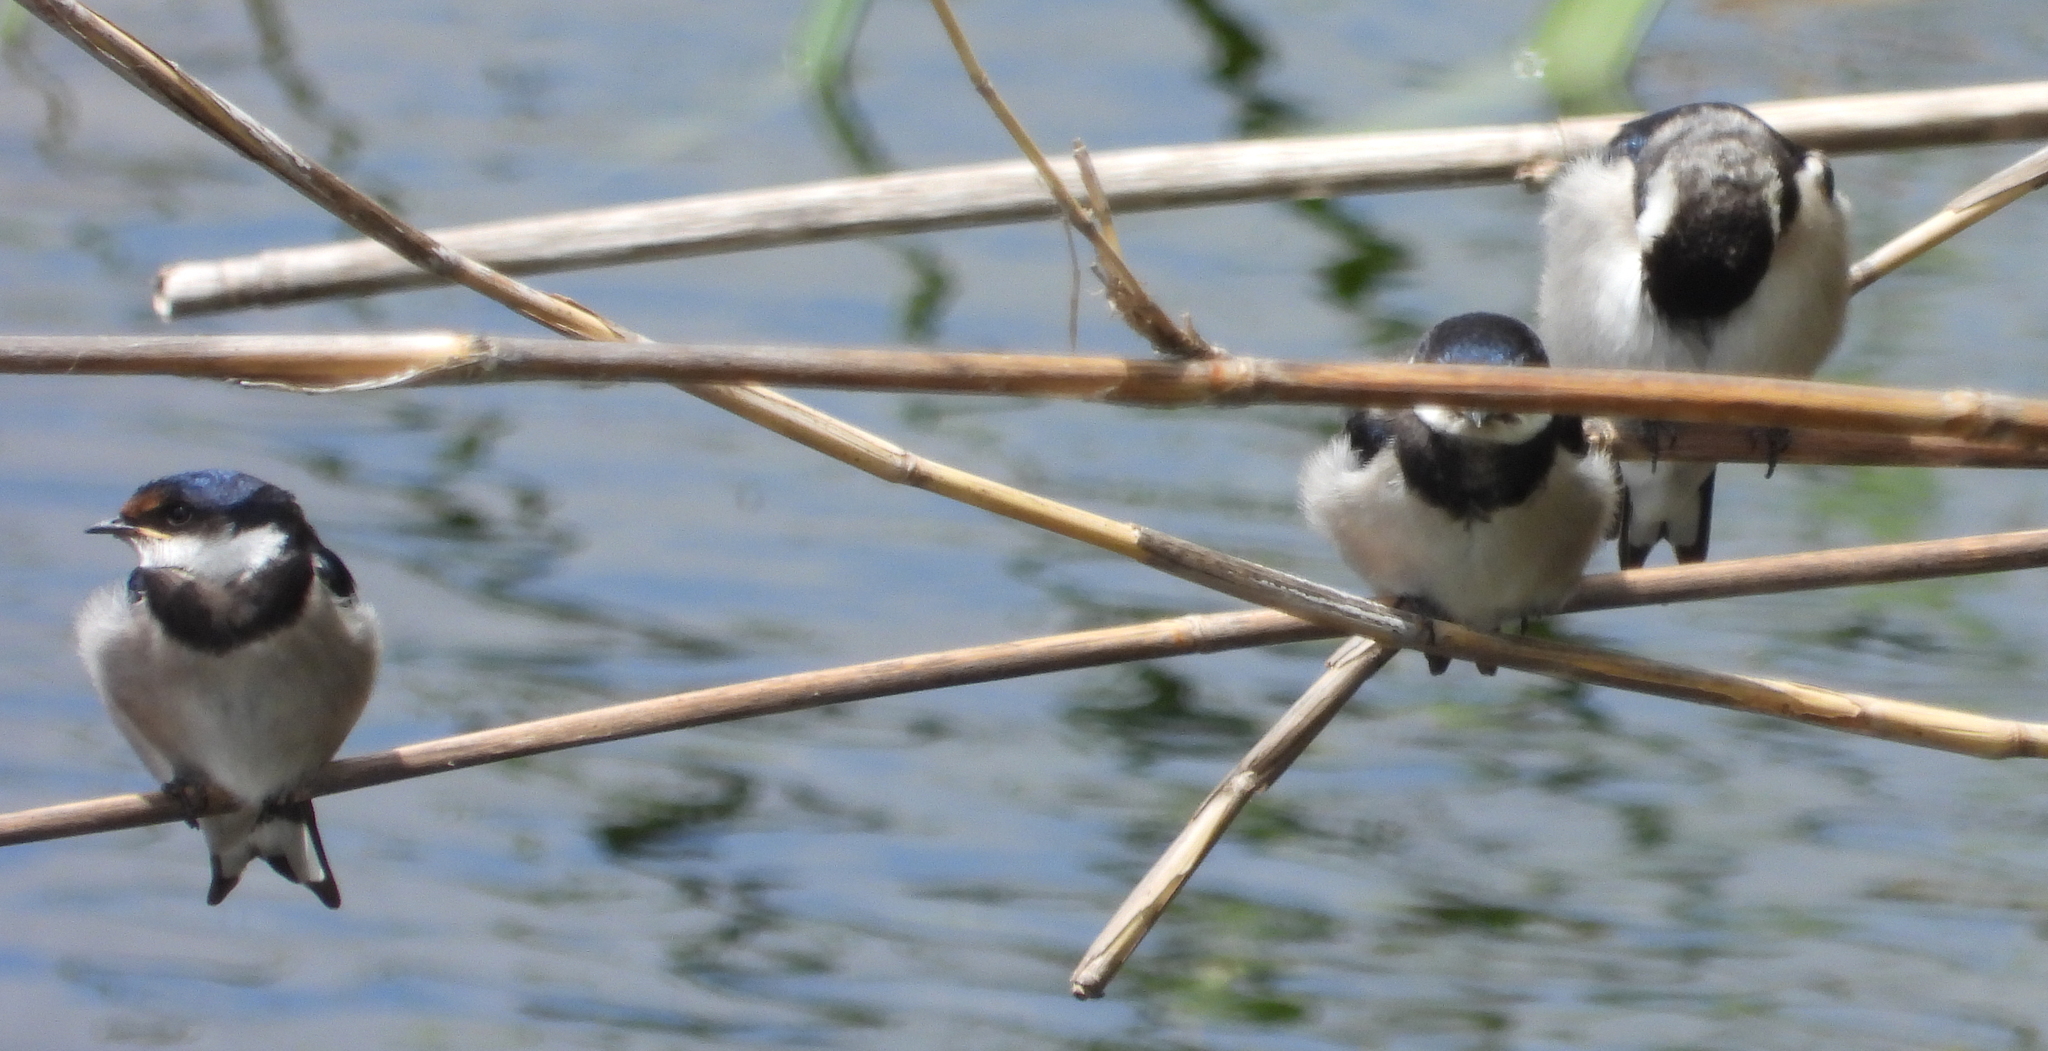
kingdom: Animalia
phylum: Chordata
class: Aves
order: Passeriformes
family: Hirundinidae
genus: Hirundo
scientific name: Hirundo albigularis
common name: White-throated swallow
